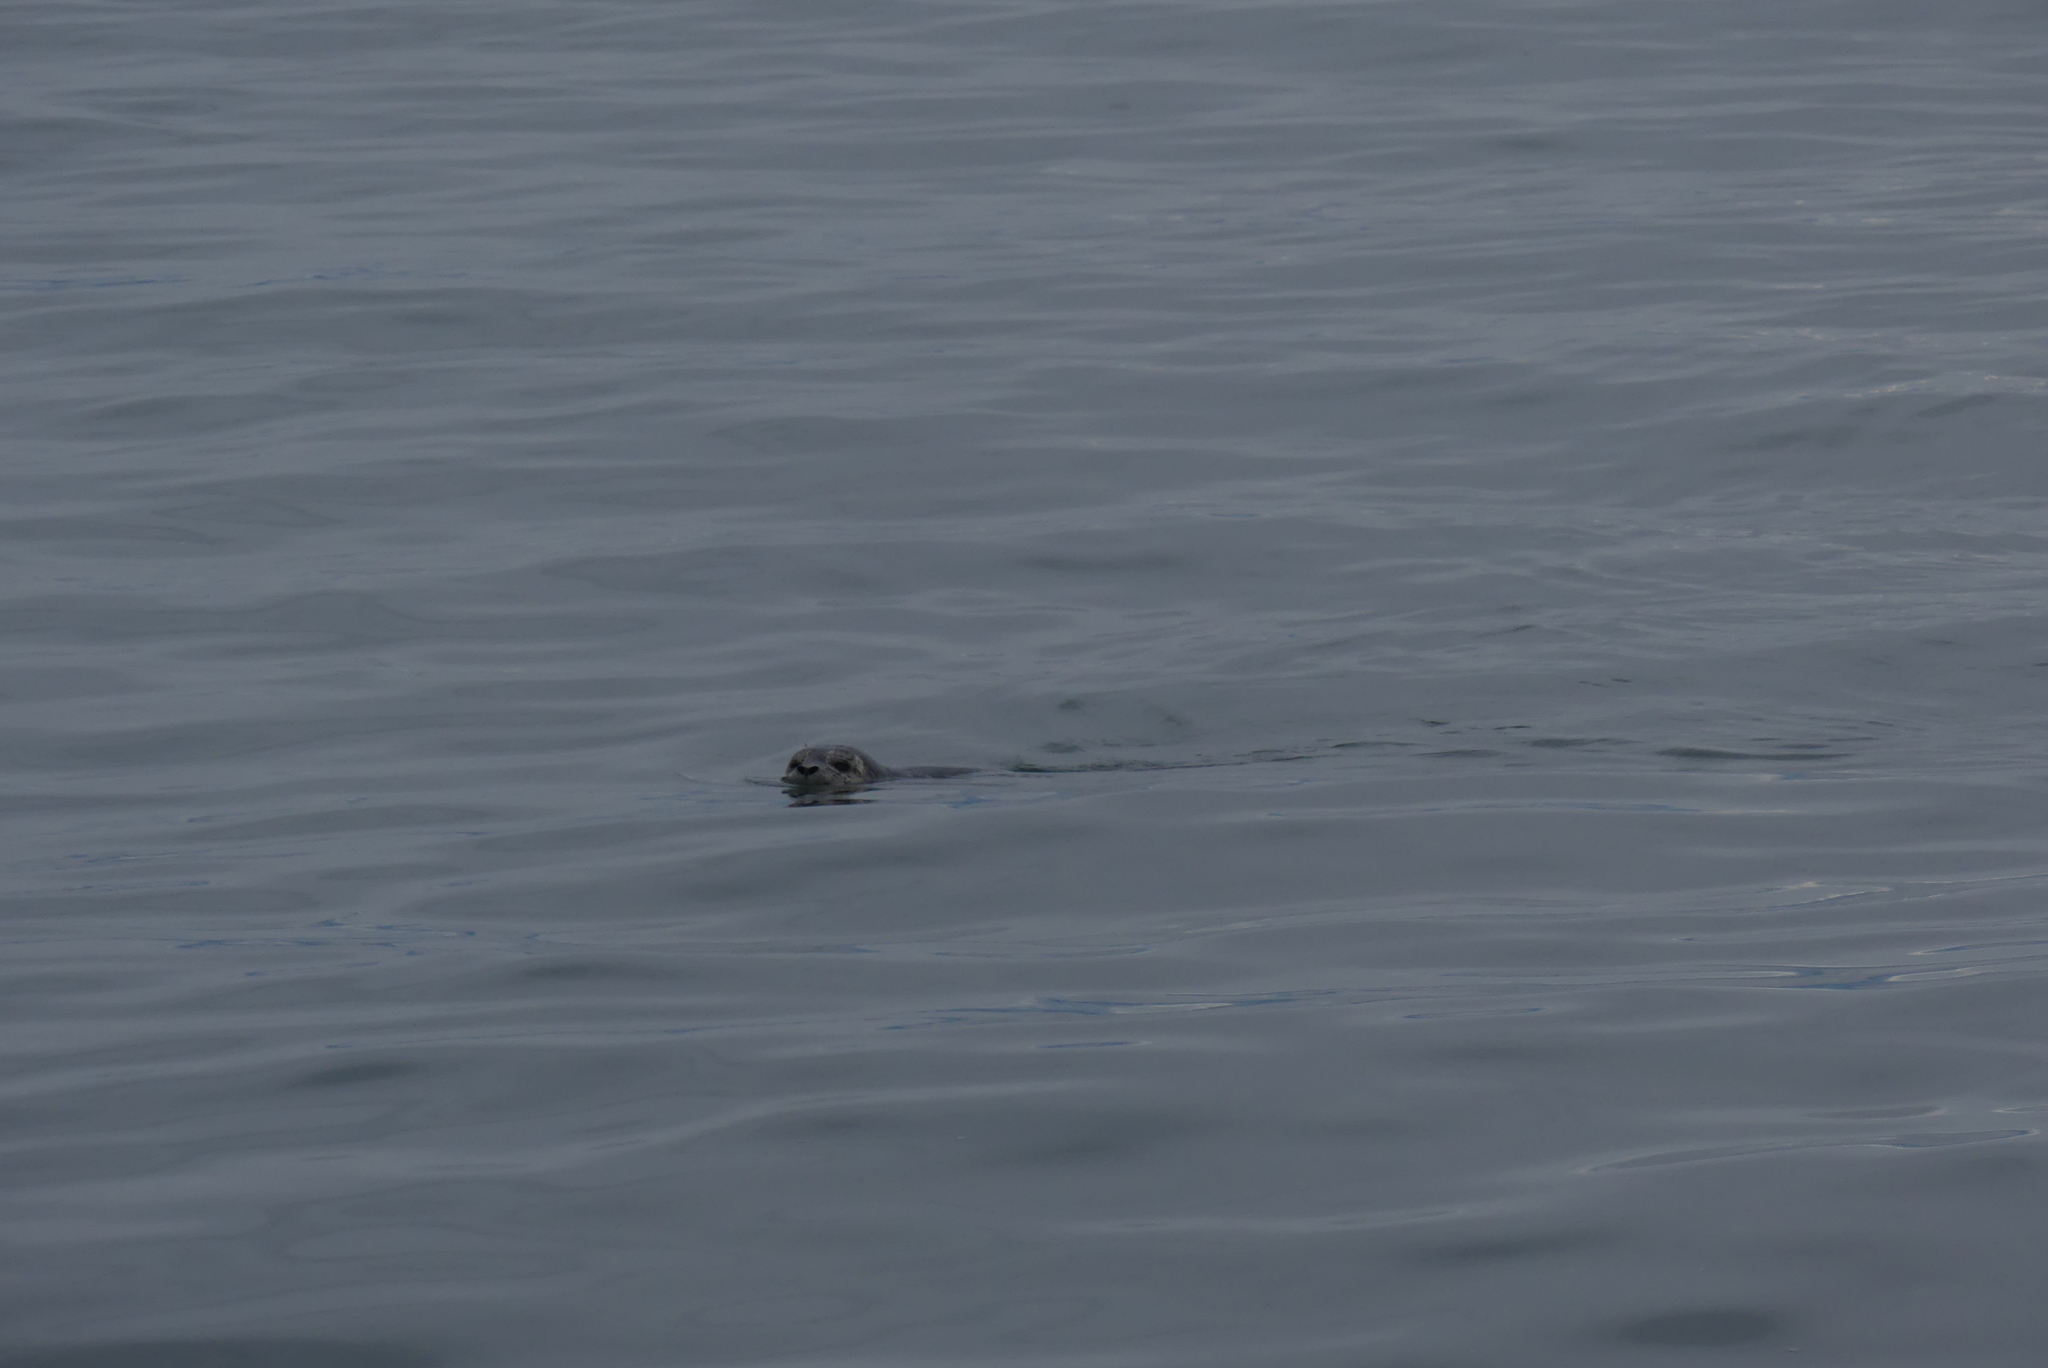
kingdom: Animalia
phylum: Chordata
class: Mammalia
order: Carnivora
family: Phocidae
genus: Phoca
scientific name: Phoca vitulina
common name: Harbor seal
